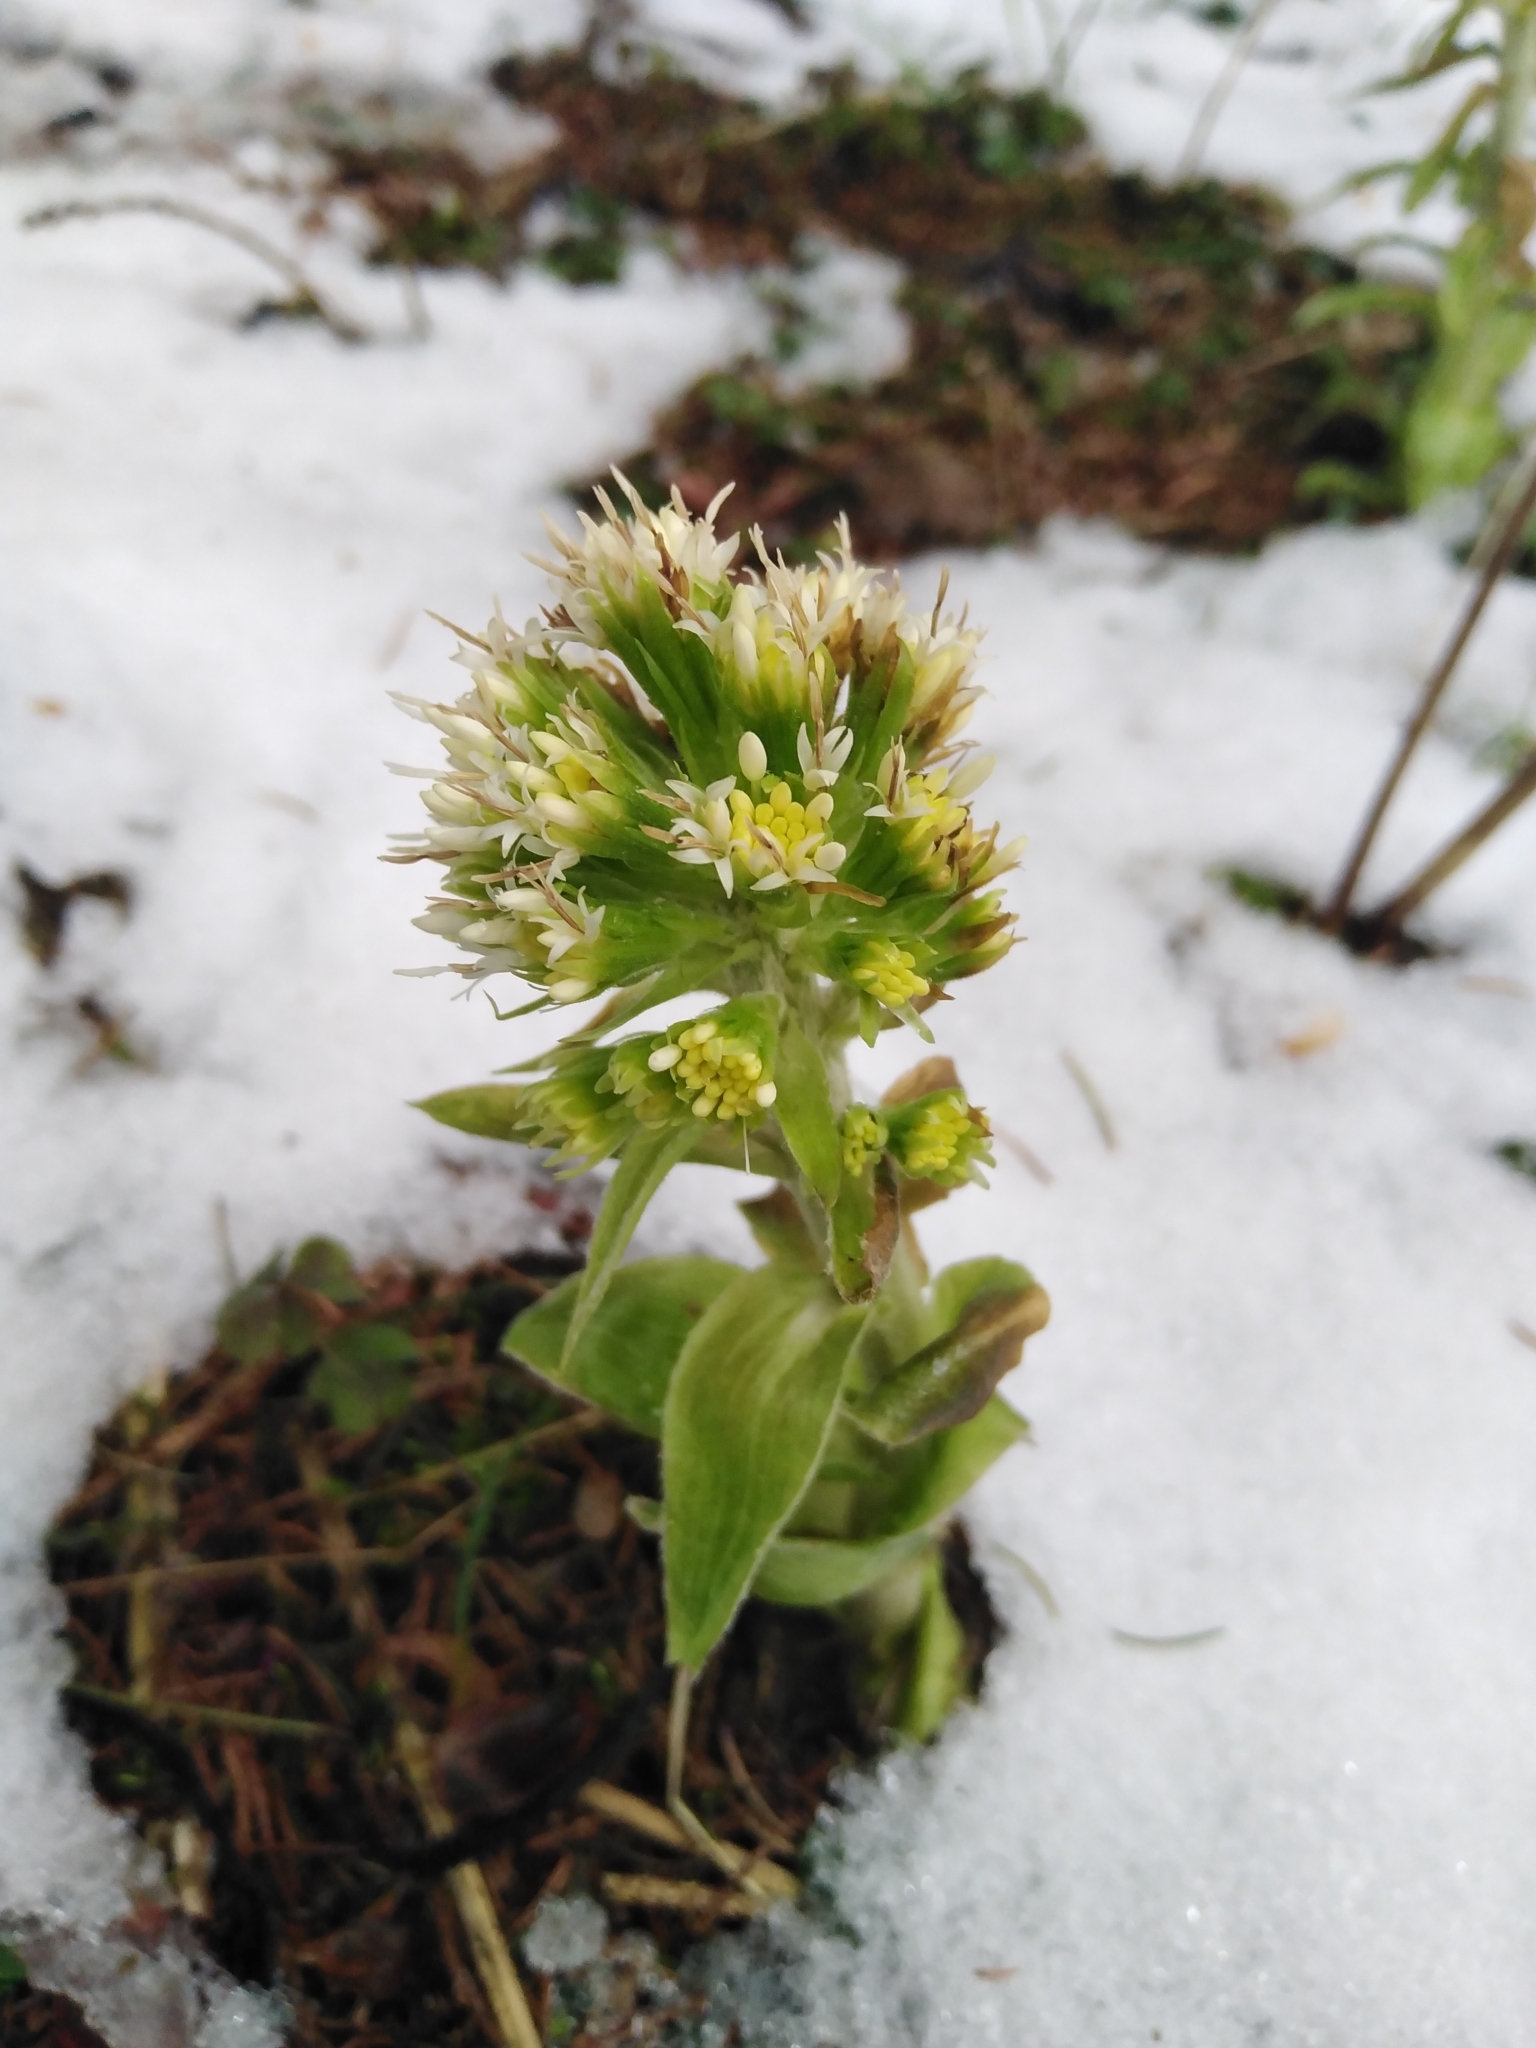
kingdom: Plantae
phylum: Tracheophyta
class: Magnoliopsida
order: Asterales
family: Asteraceae
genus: Petasites
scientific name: Petasites albus
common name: White butterbur
